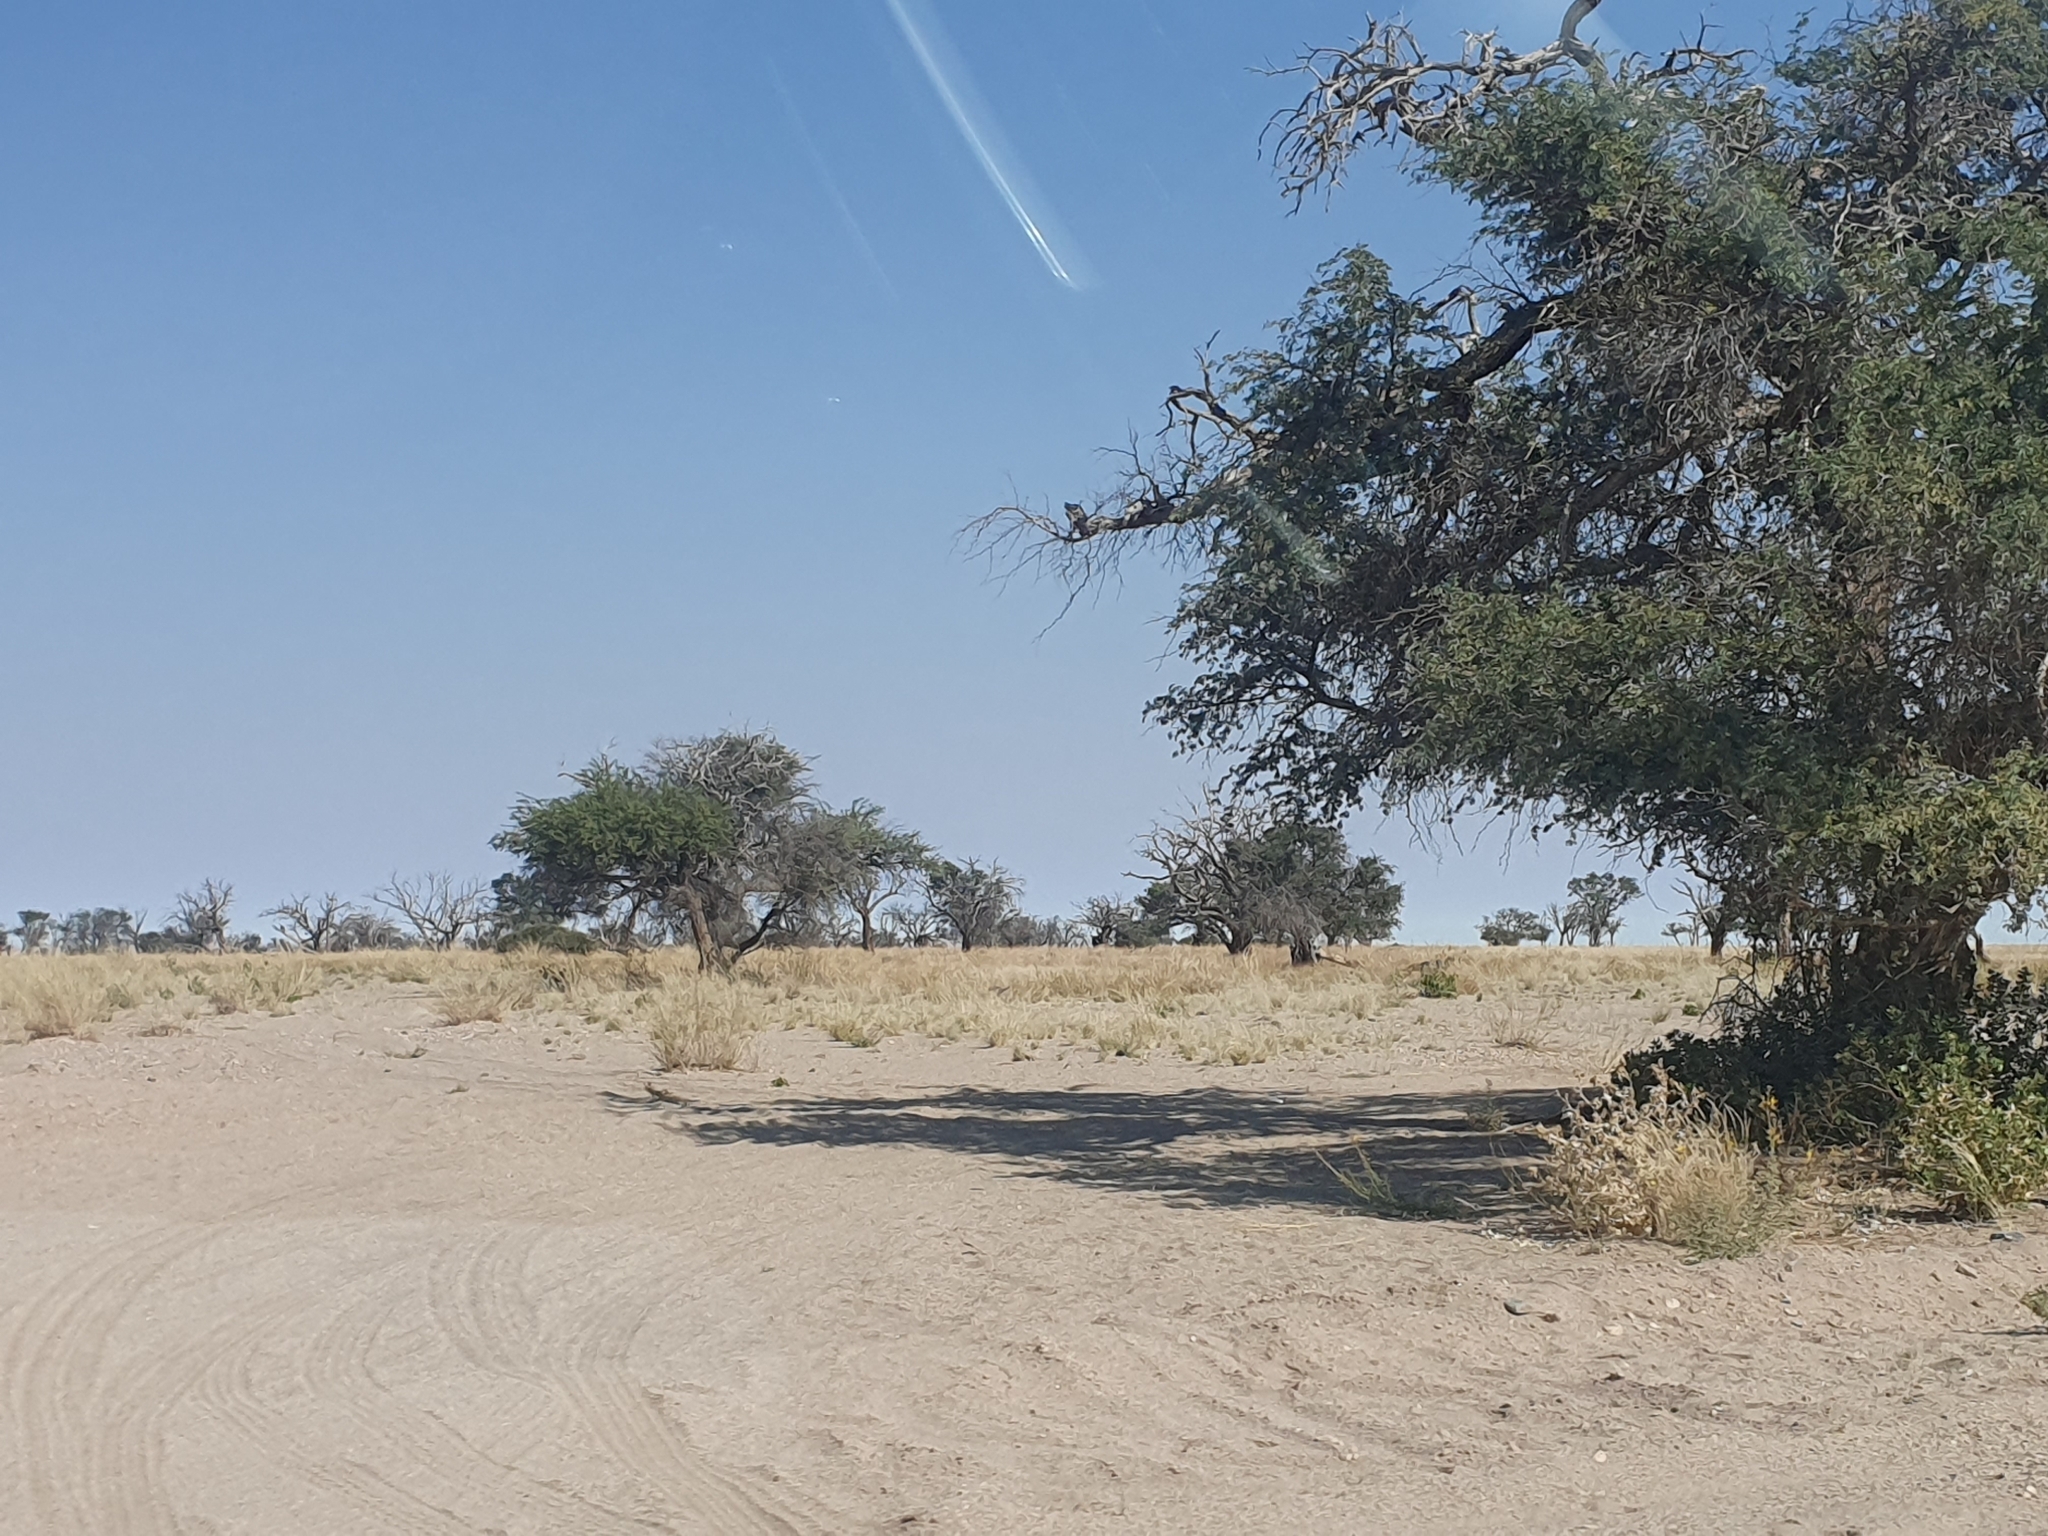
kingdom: Plantae
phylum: Tracheophyta
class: Magnoliopsida
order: Fabales
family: Fabaceae
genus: Vachellia
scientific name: Vachellia erioloba
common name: Camel thorn
